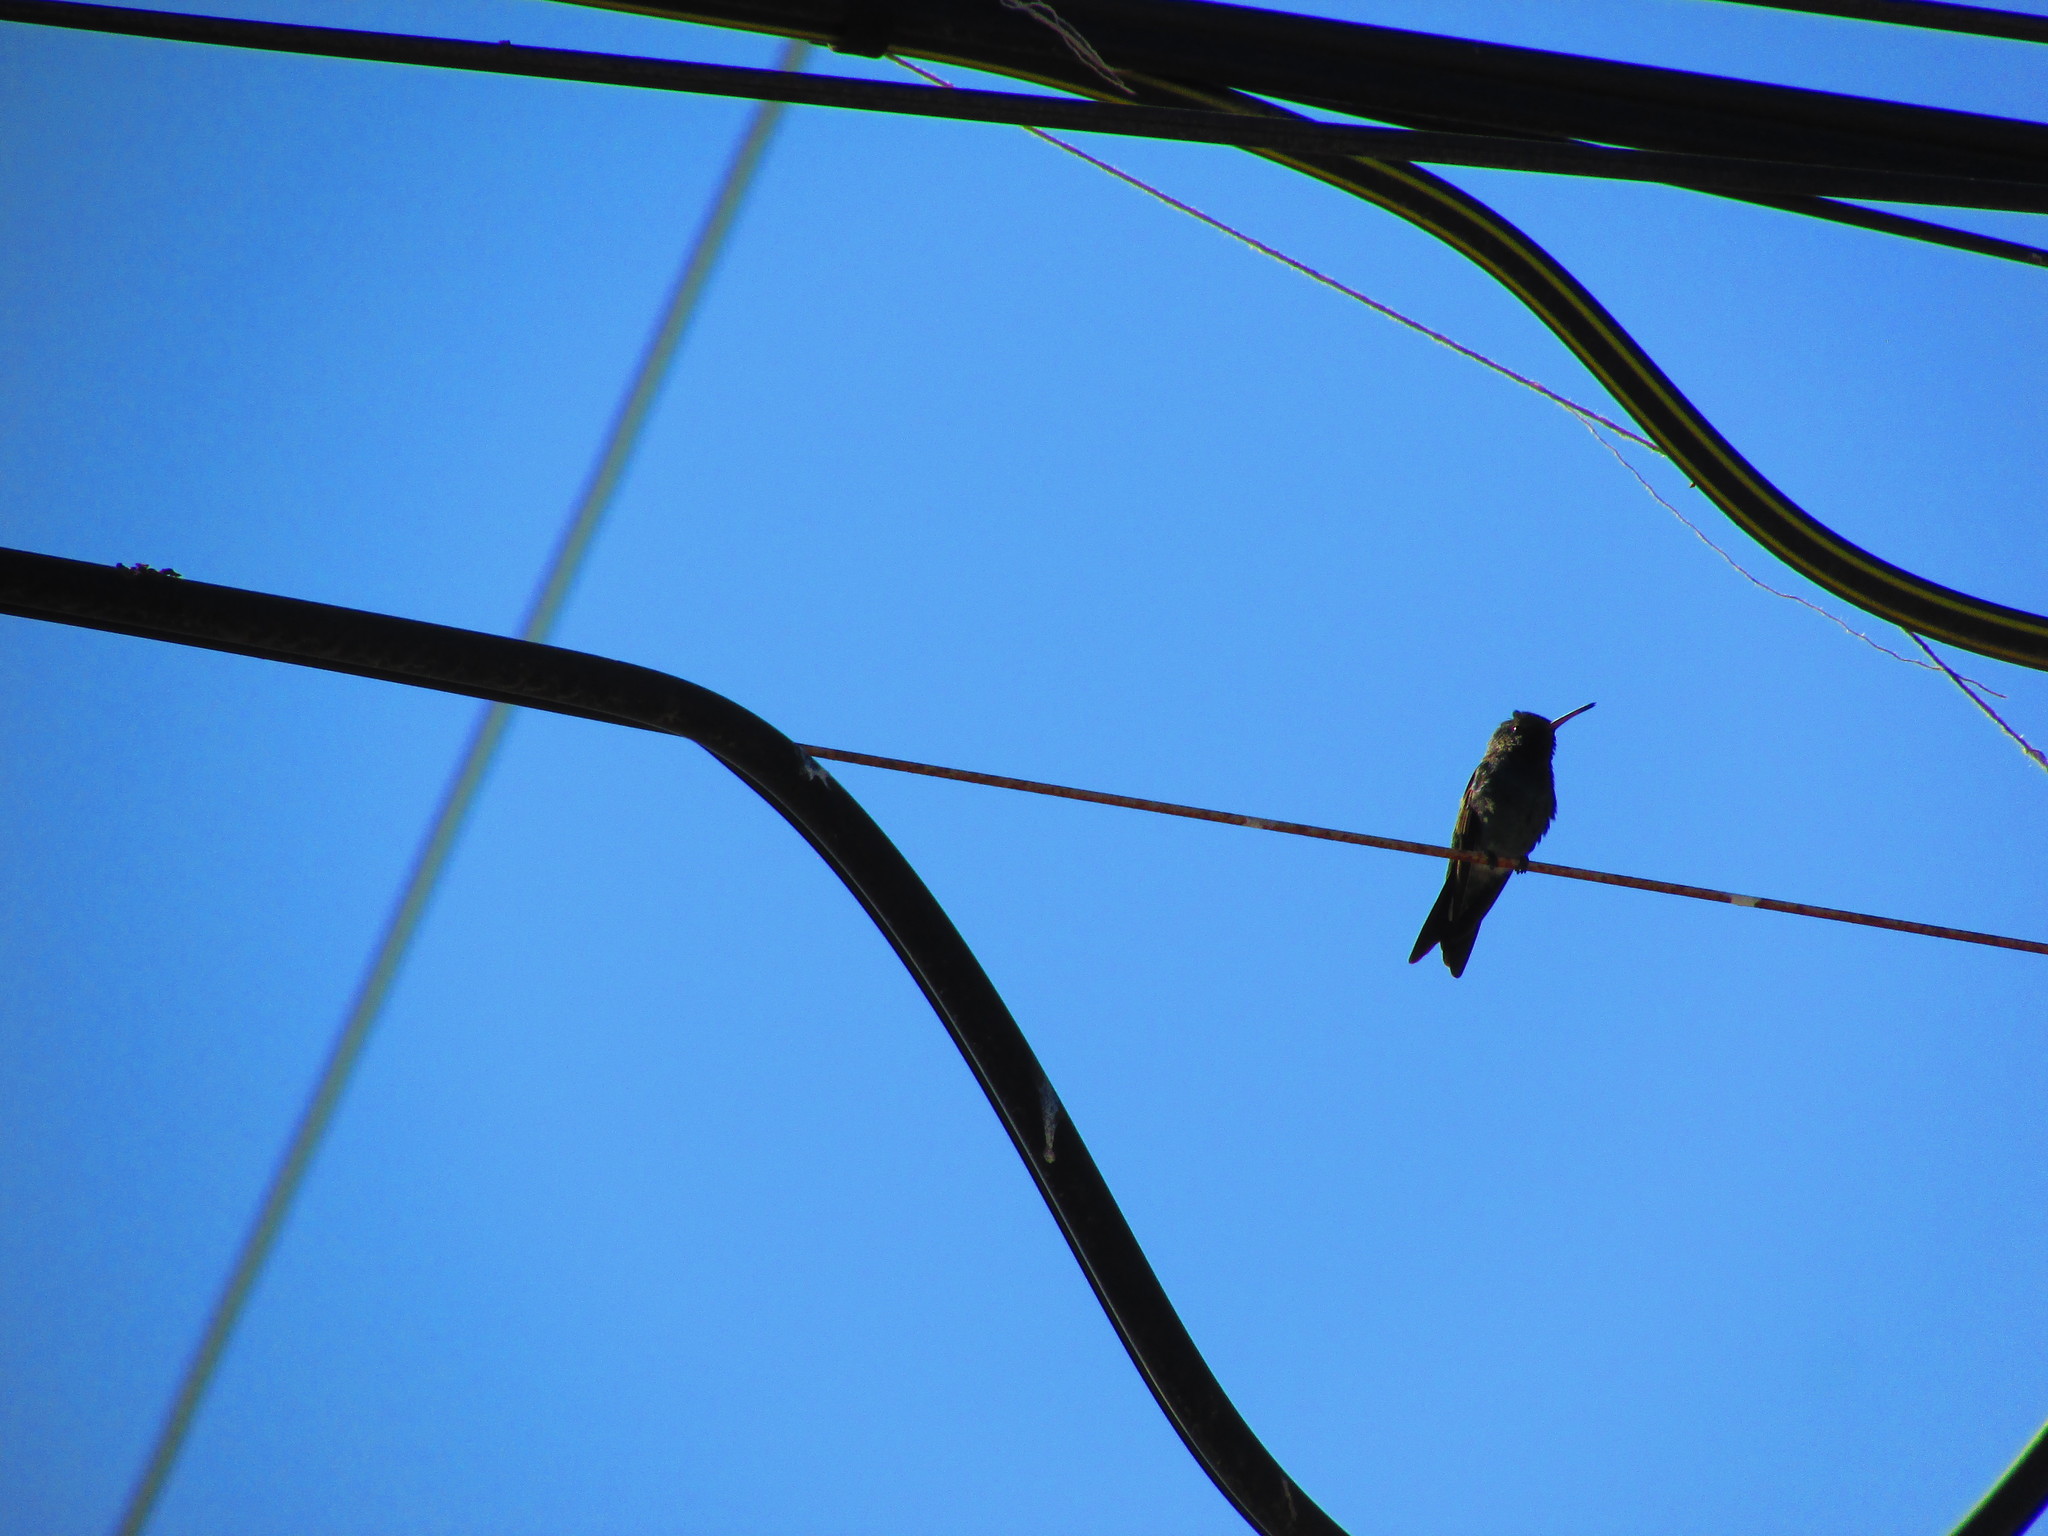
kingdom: Animalia
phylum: Chordata
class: Aves
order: Apodiformes
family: Trochilidae
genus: Chrysuronia
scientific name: Chrysuronia coeruleogularis
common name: Sapphire-throated hummingbird
